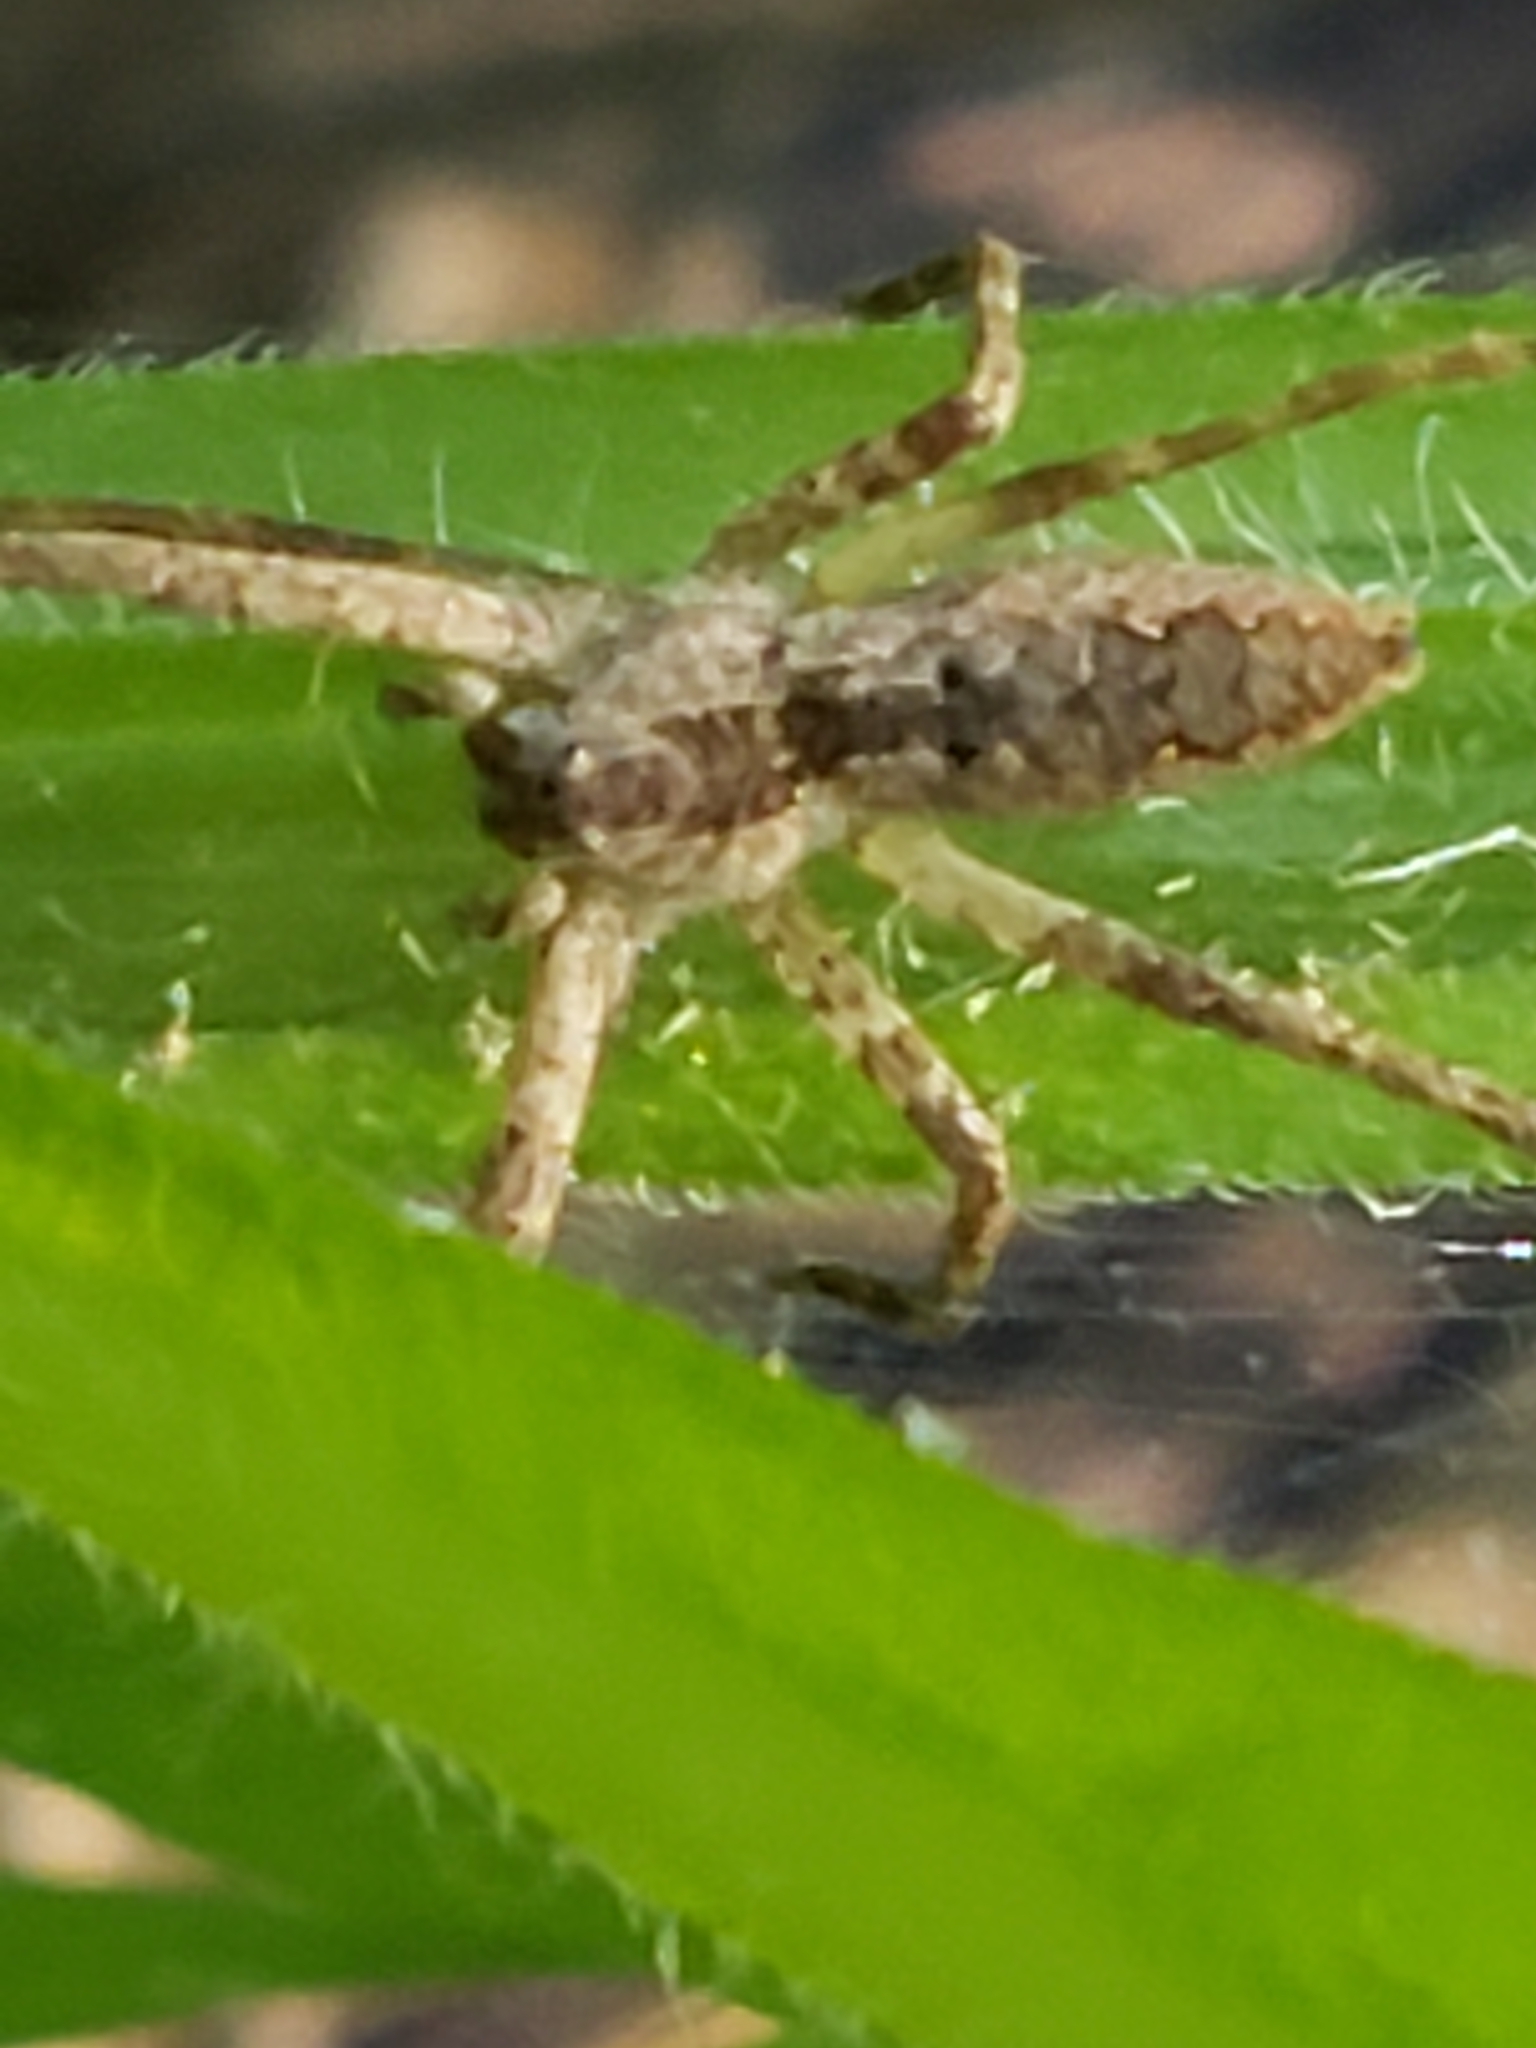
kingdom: Animalia
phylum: Arthropoda
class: Arachnida
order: Araneae
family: Pisauridae
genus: Pisaurina
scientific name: Pisaurina mira
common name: American nursery web spider
